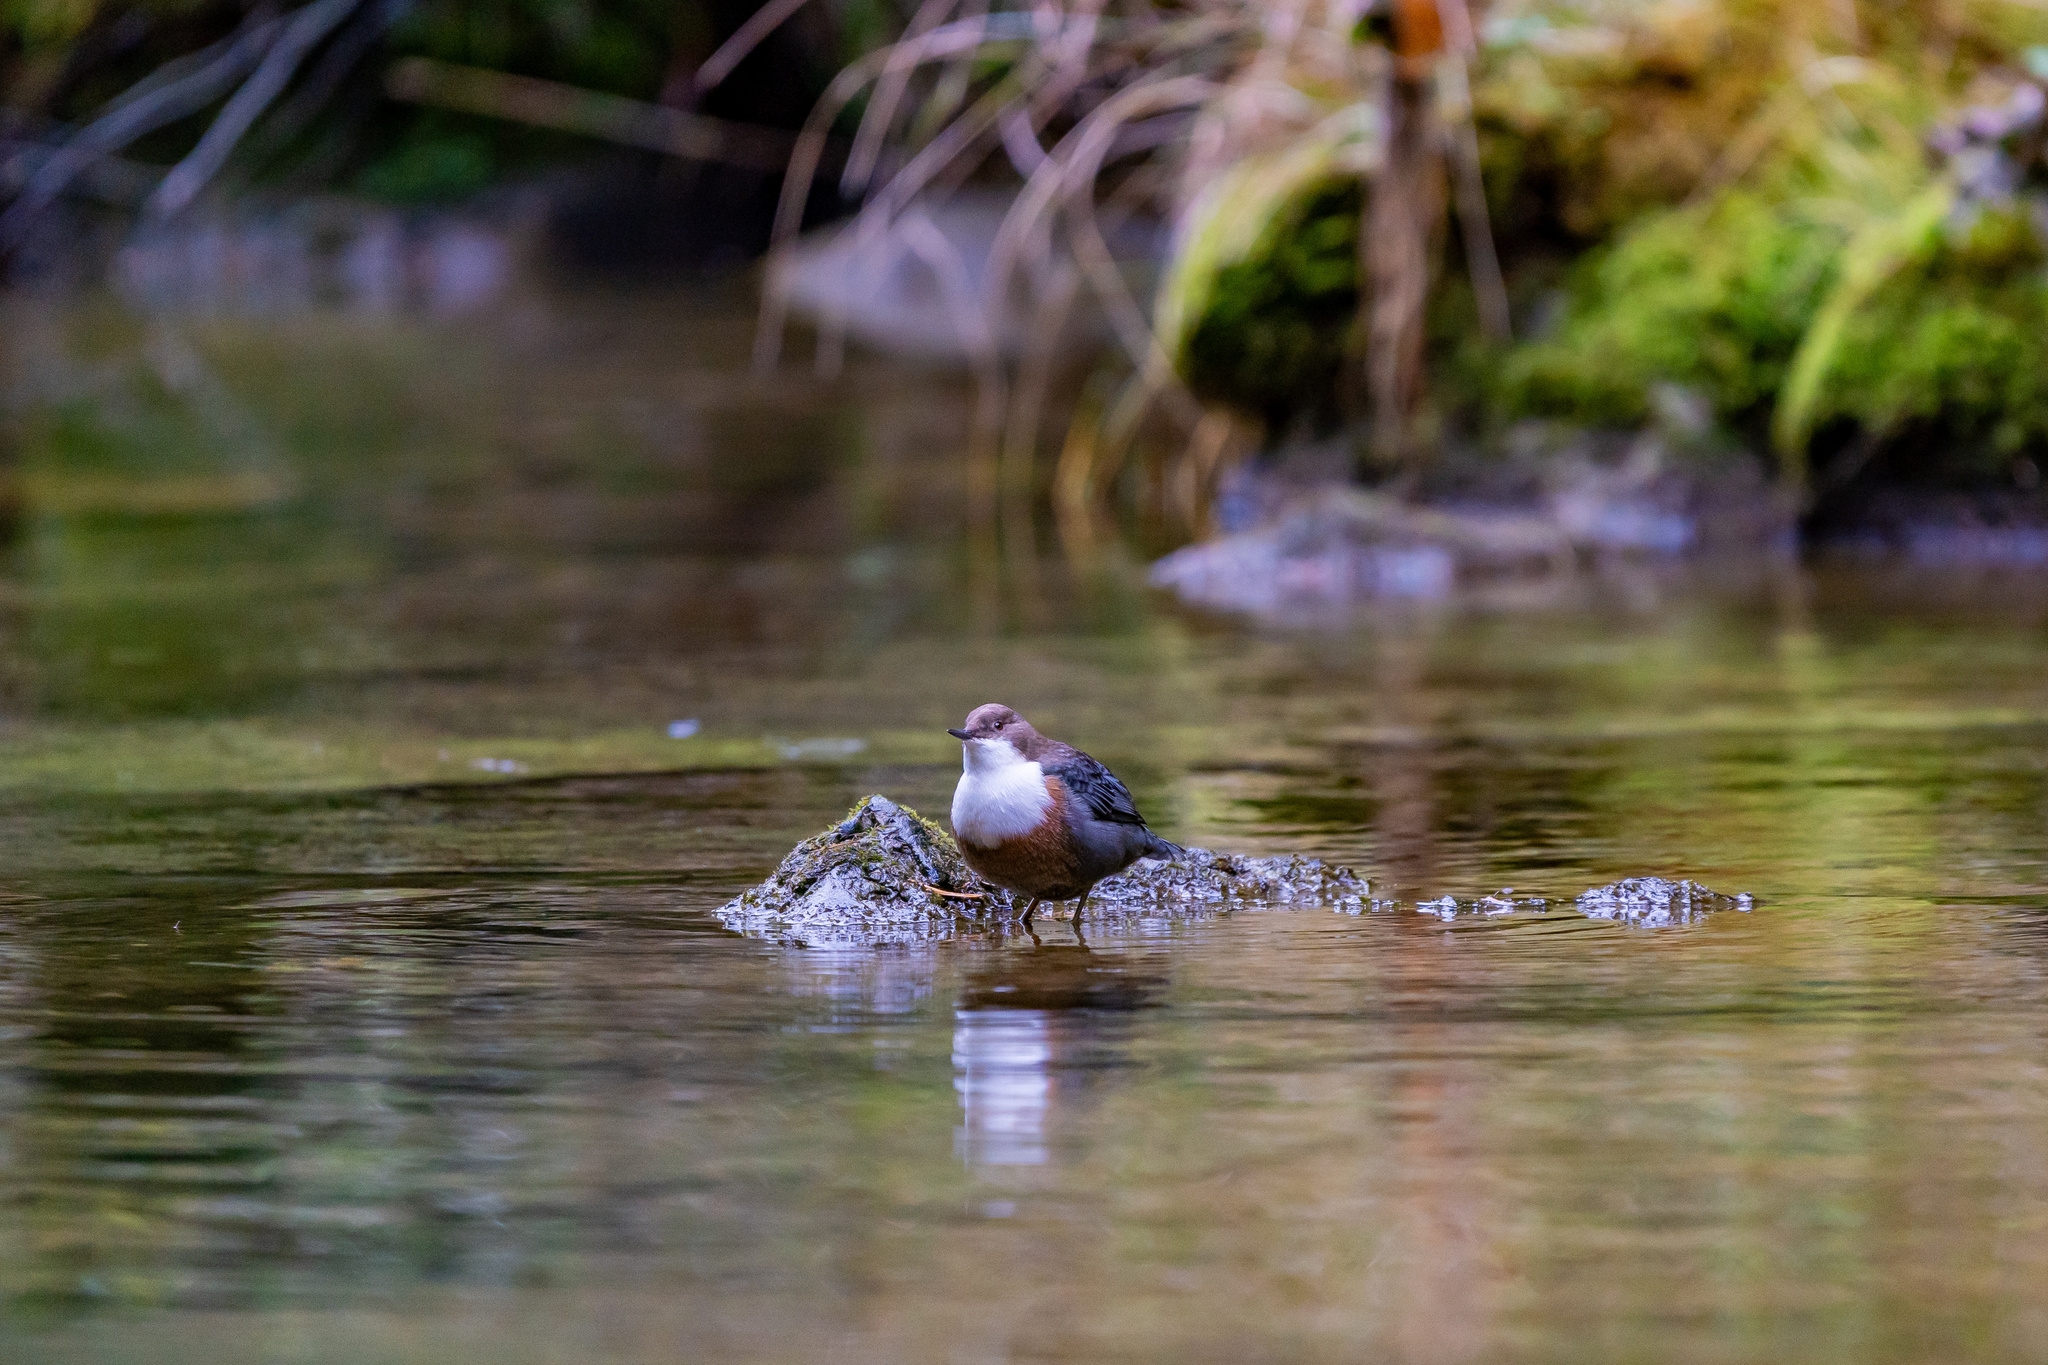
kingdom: Animalia
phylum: Chordata
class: Aves
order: Passeriformes
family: Cinclidae
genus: Cinclus
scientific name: Cinclus cinclus
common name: White-throated dipper
